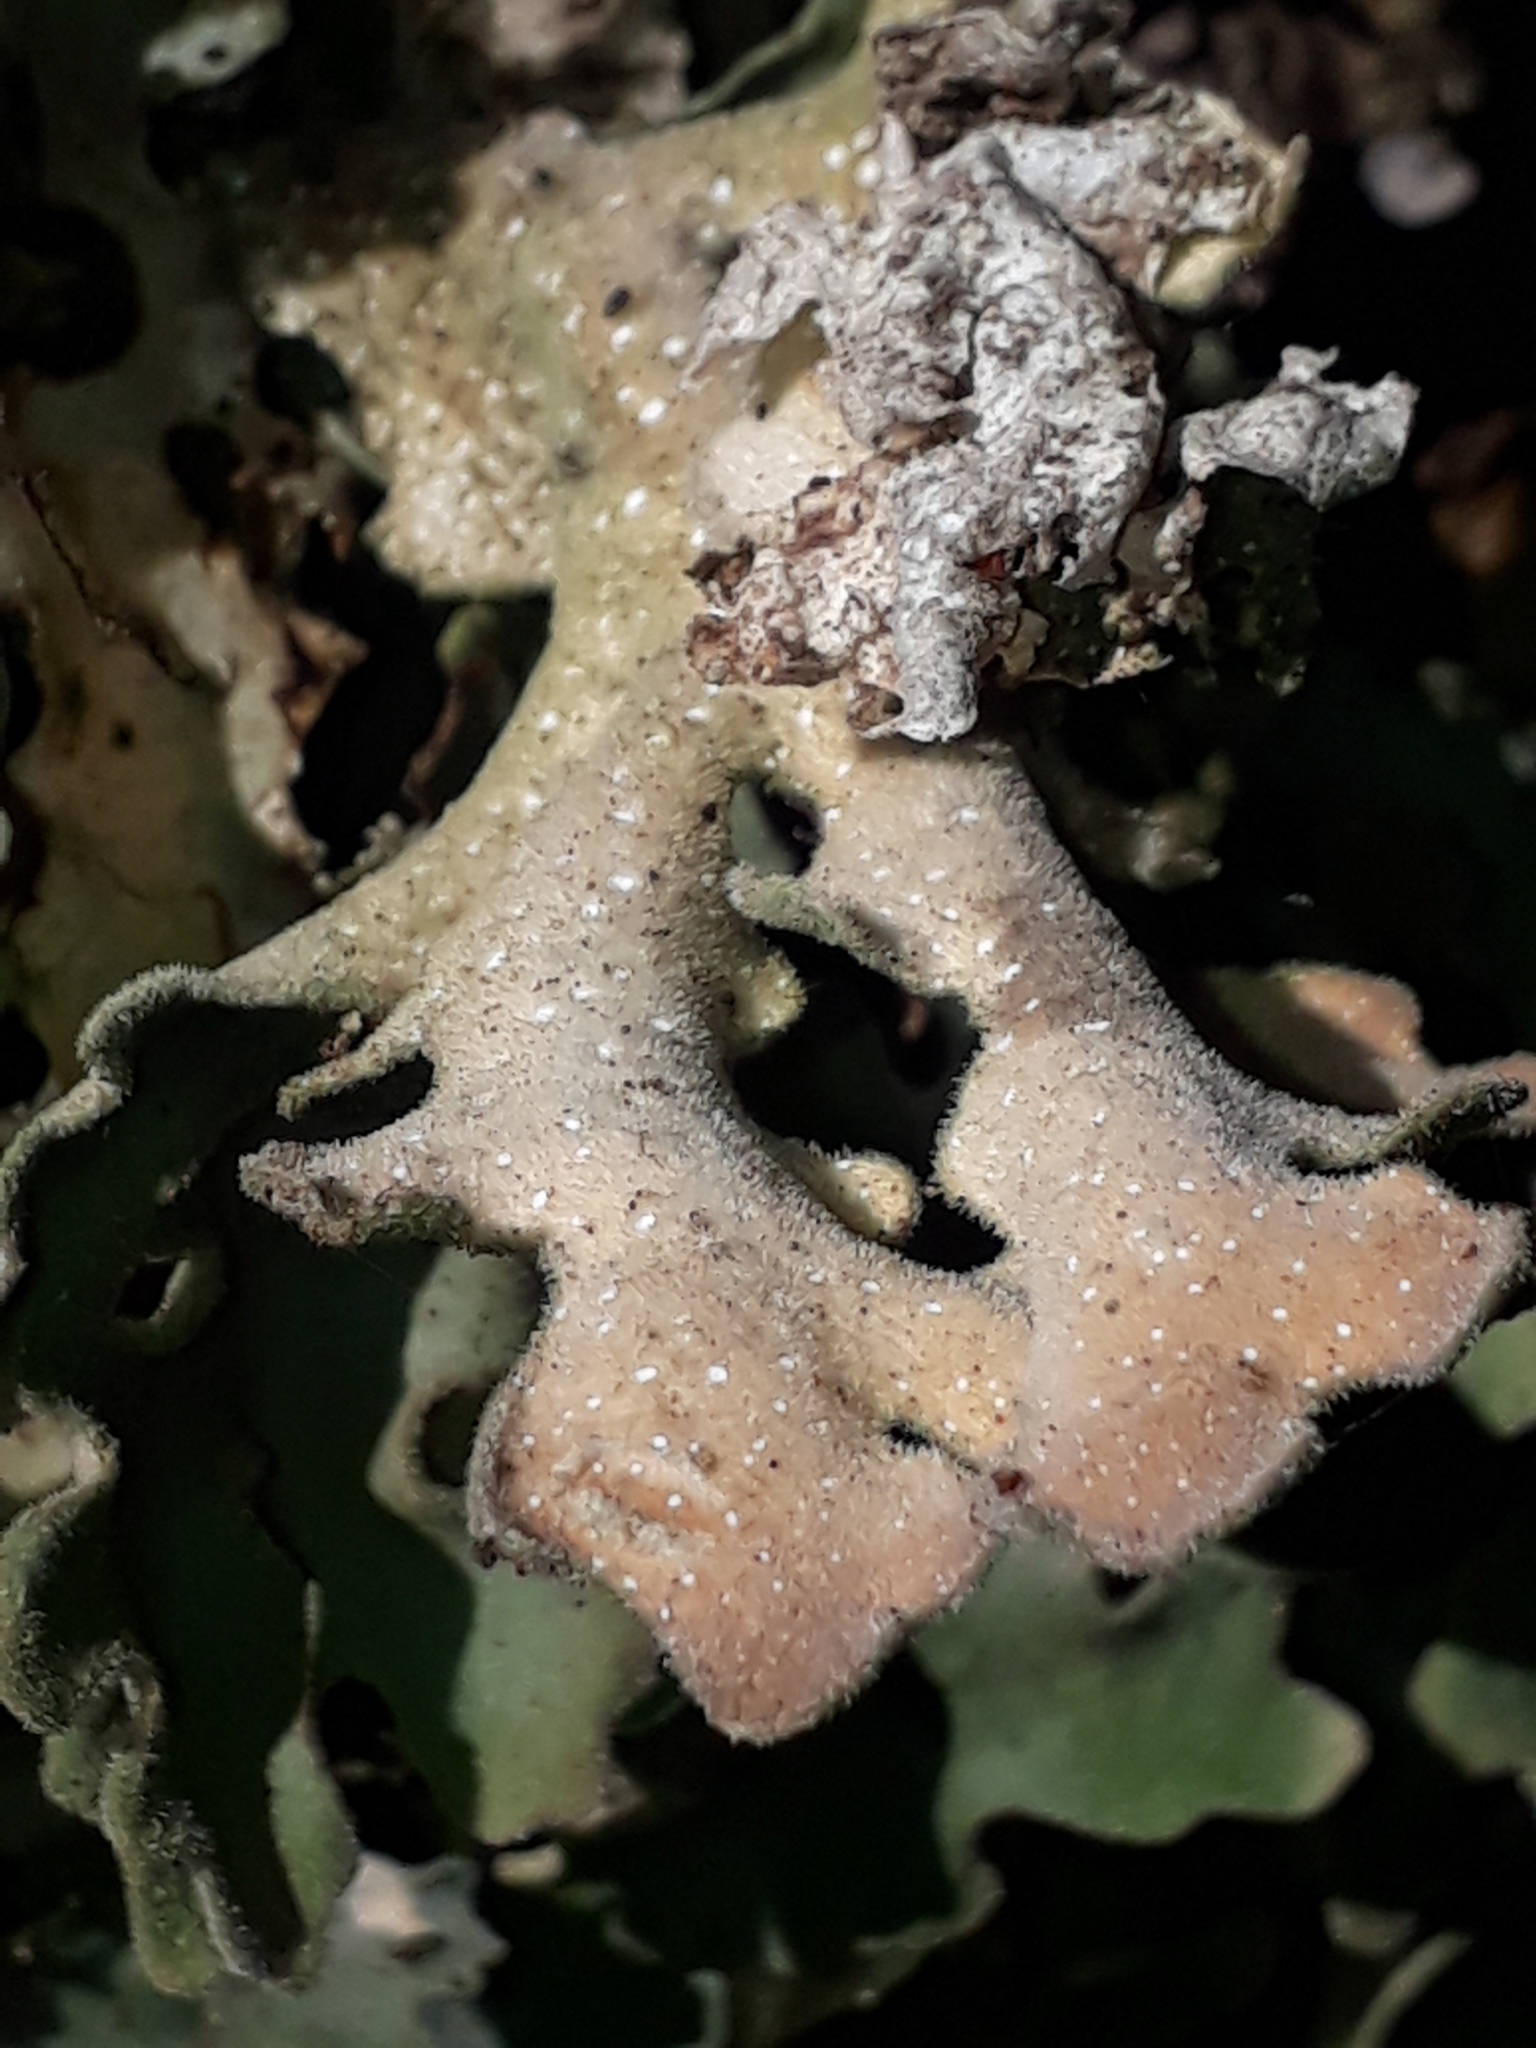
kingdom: Fungi
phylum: Ascomycota
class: Lecanoromycetes
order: Peltigerales
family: Lobariaceae
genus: Pseudocyphellaria
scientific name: Pseudocyphellaria coriacea
